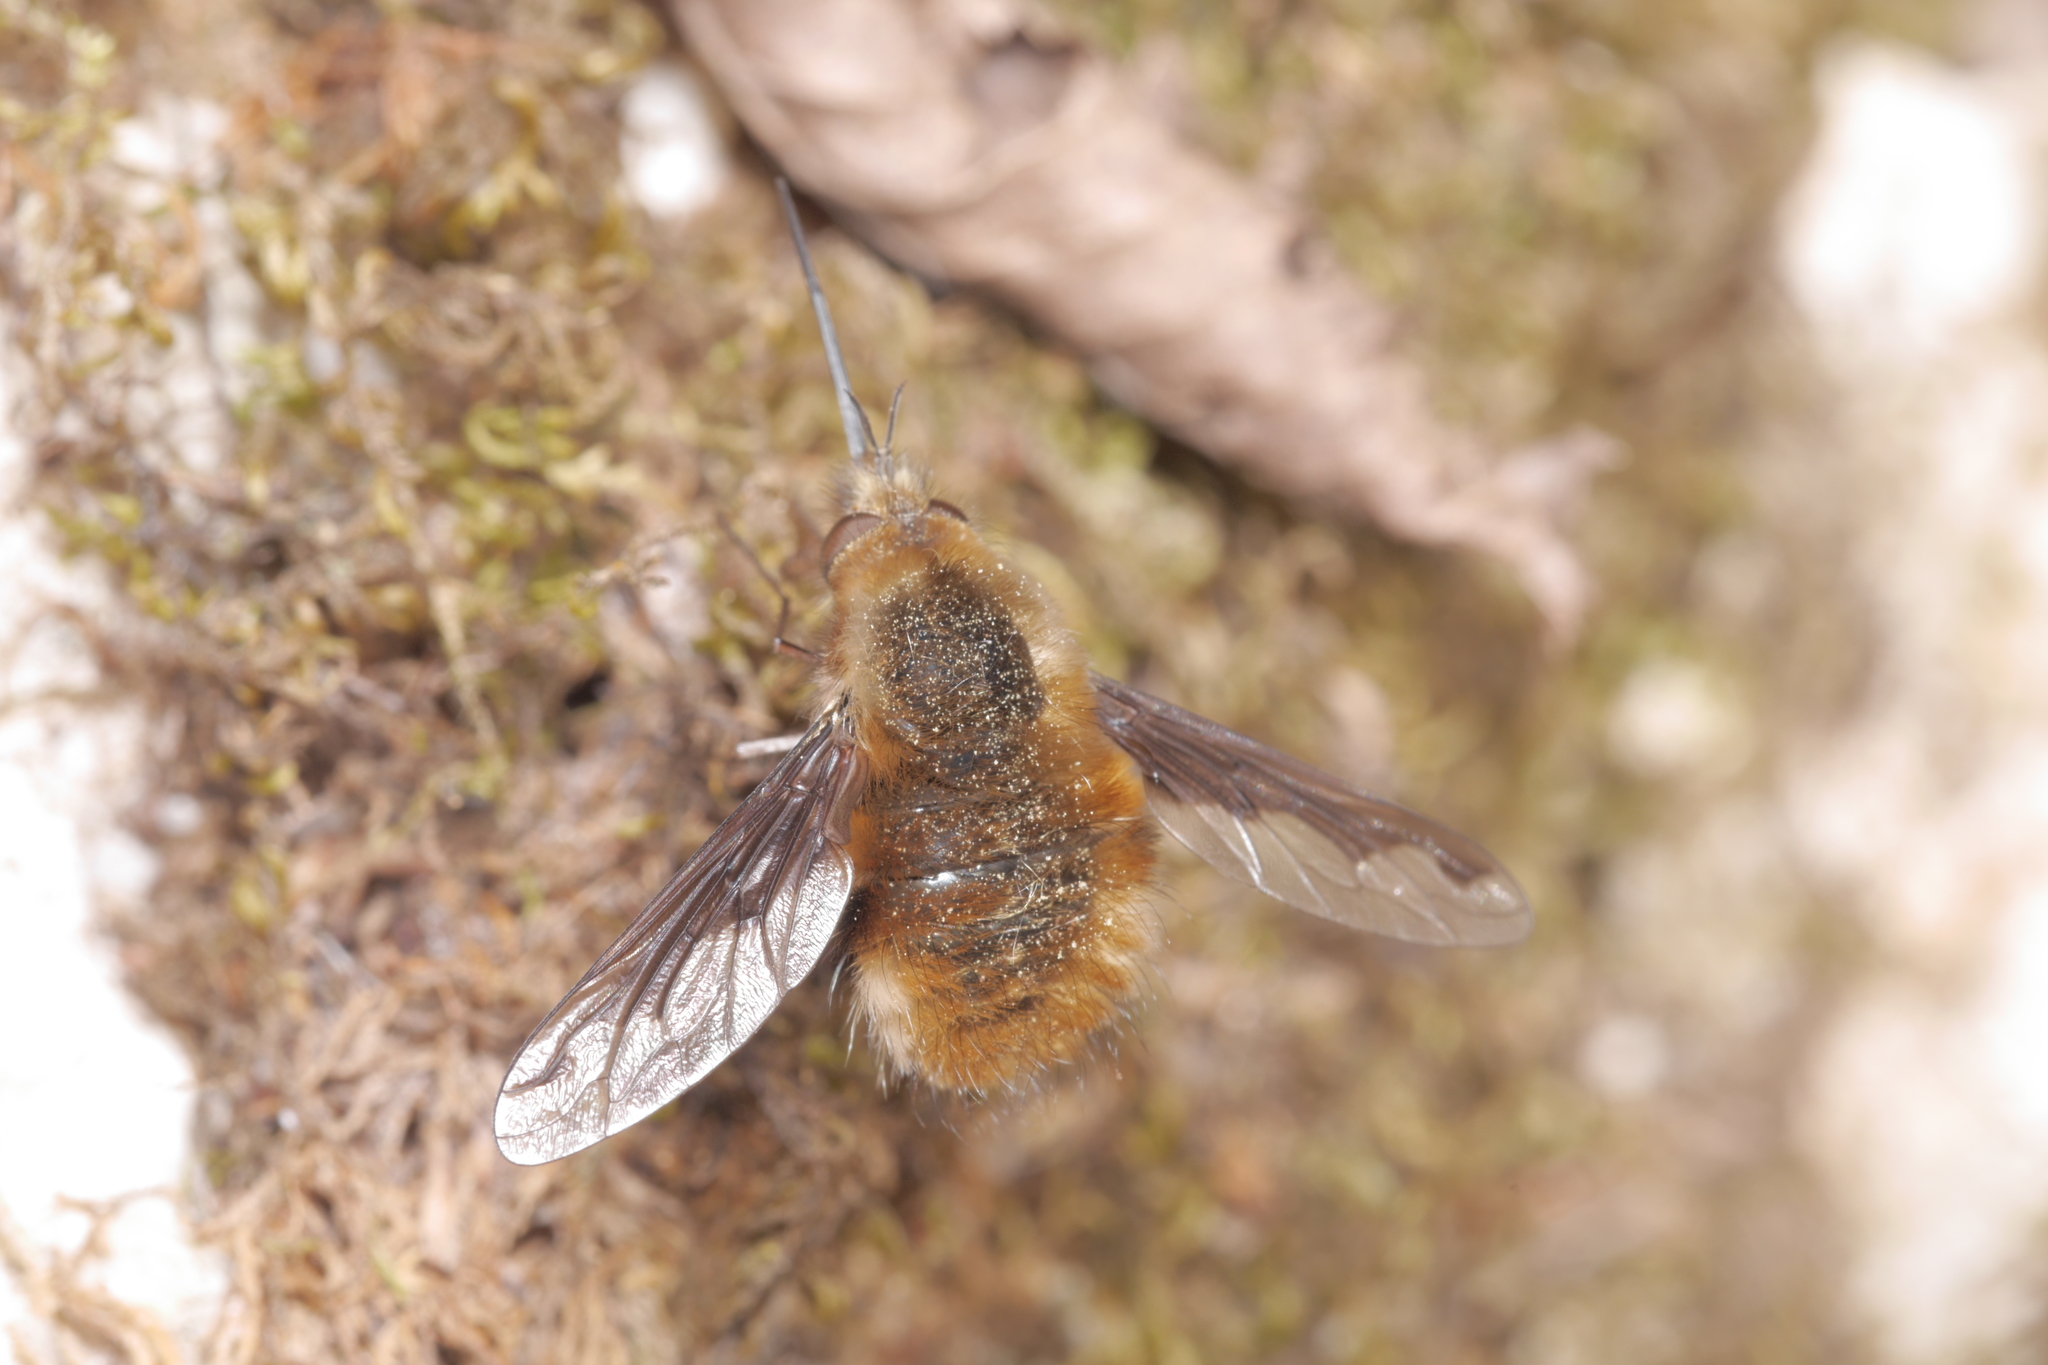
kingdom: Animalia
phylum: Arthropoda
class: Insecta
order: Diptera
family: Bombyliidae
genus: Bombylius
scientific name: Bombylius major
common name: Bee fly
